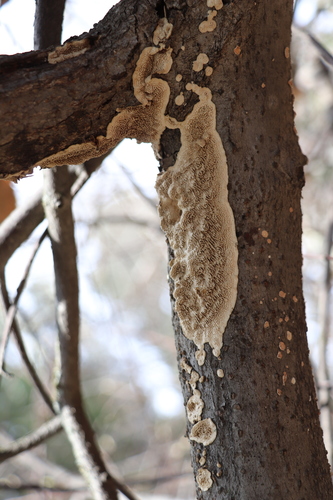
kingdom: Fungi
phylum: Basidiomycota
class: Agaricomycetes
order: Polyporales
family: Polyporaceae
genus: Podofomes
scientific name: Podofomes mollis
